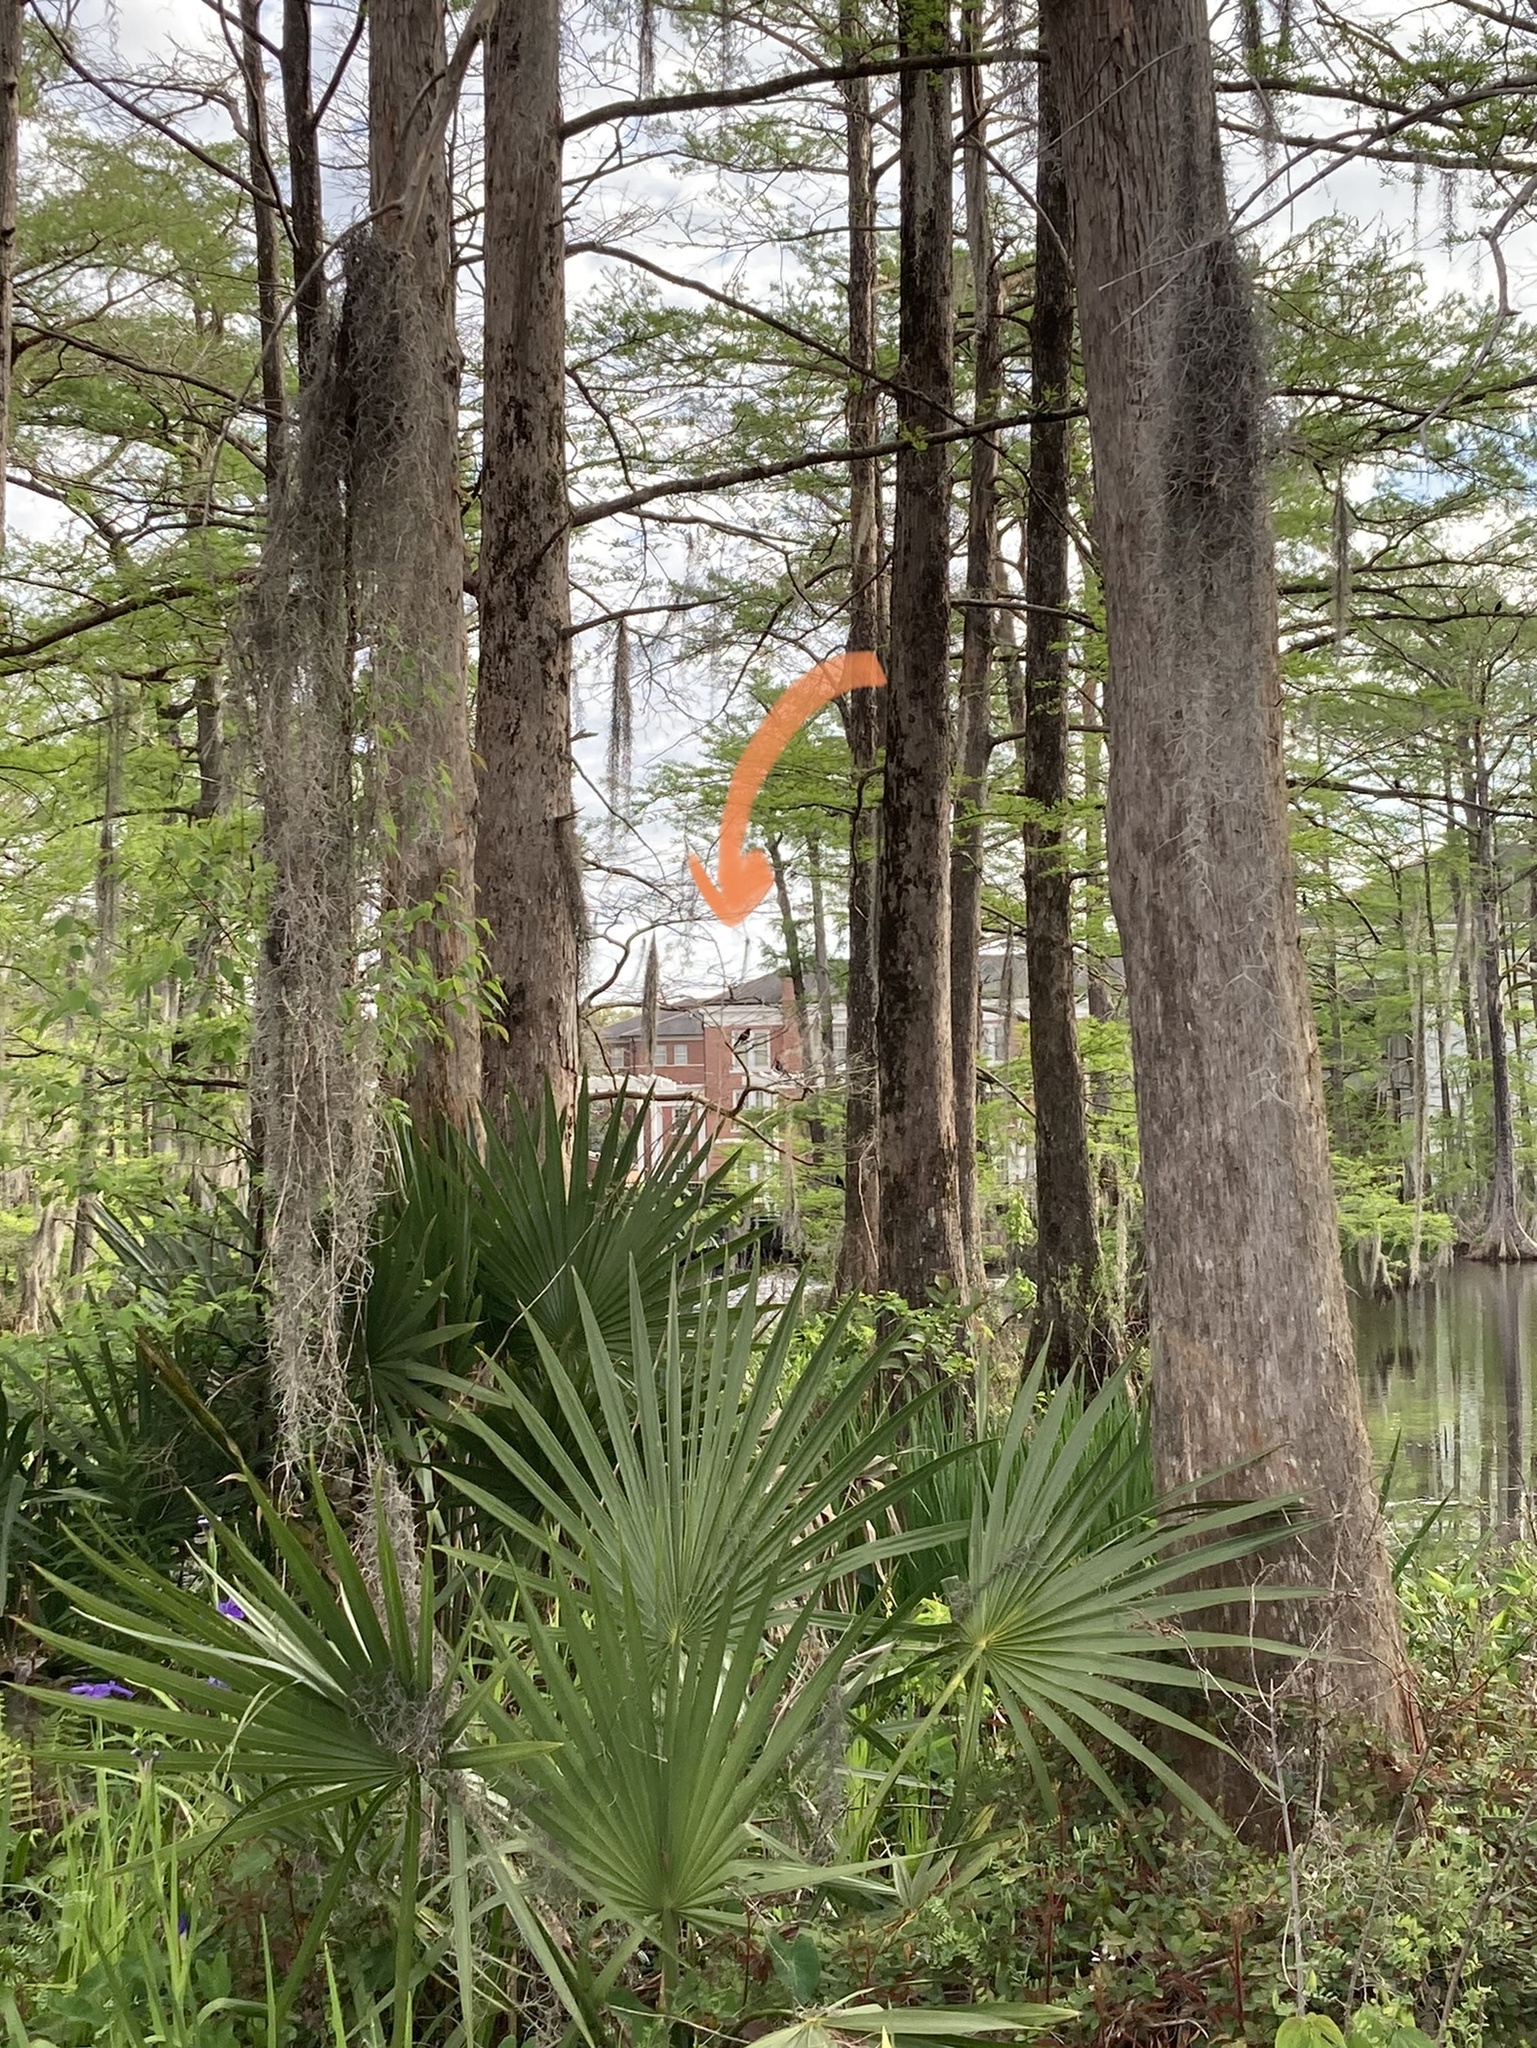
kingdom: Animalia
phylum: Chordata
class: Aves
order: Passeriformes
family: Icteridae
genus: Agelaius
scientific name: Agelaius phoeniceus
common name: Red-winged blackbird
